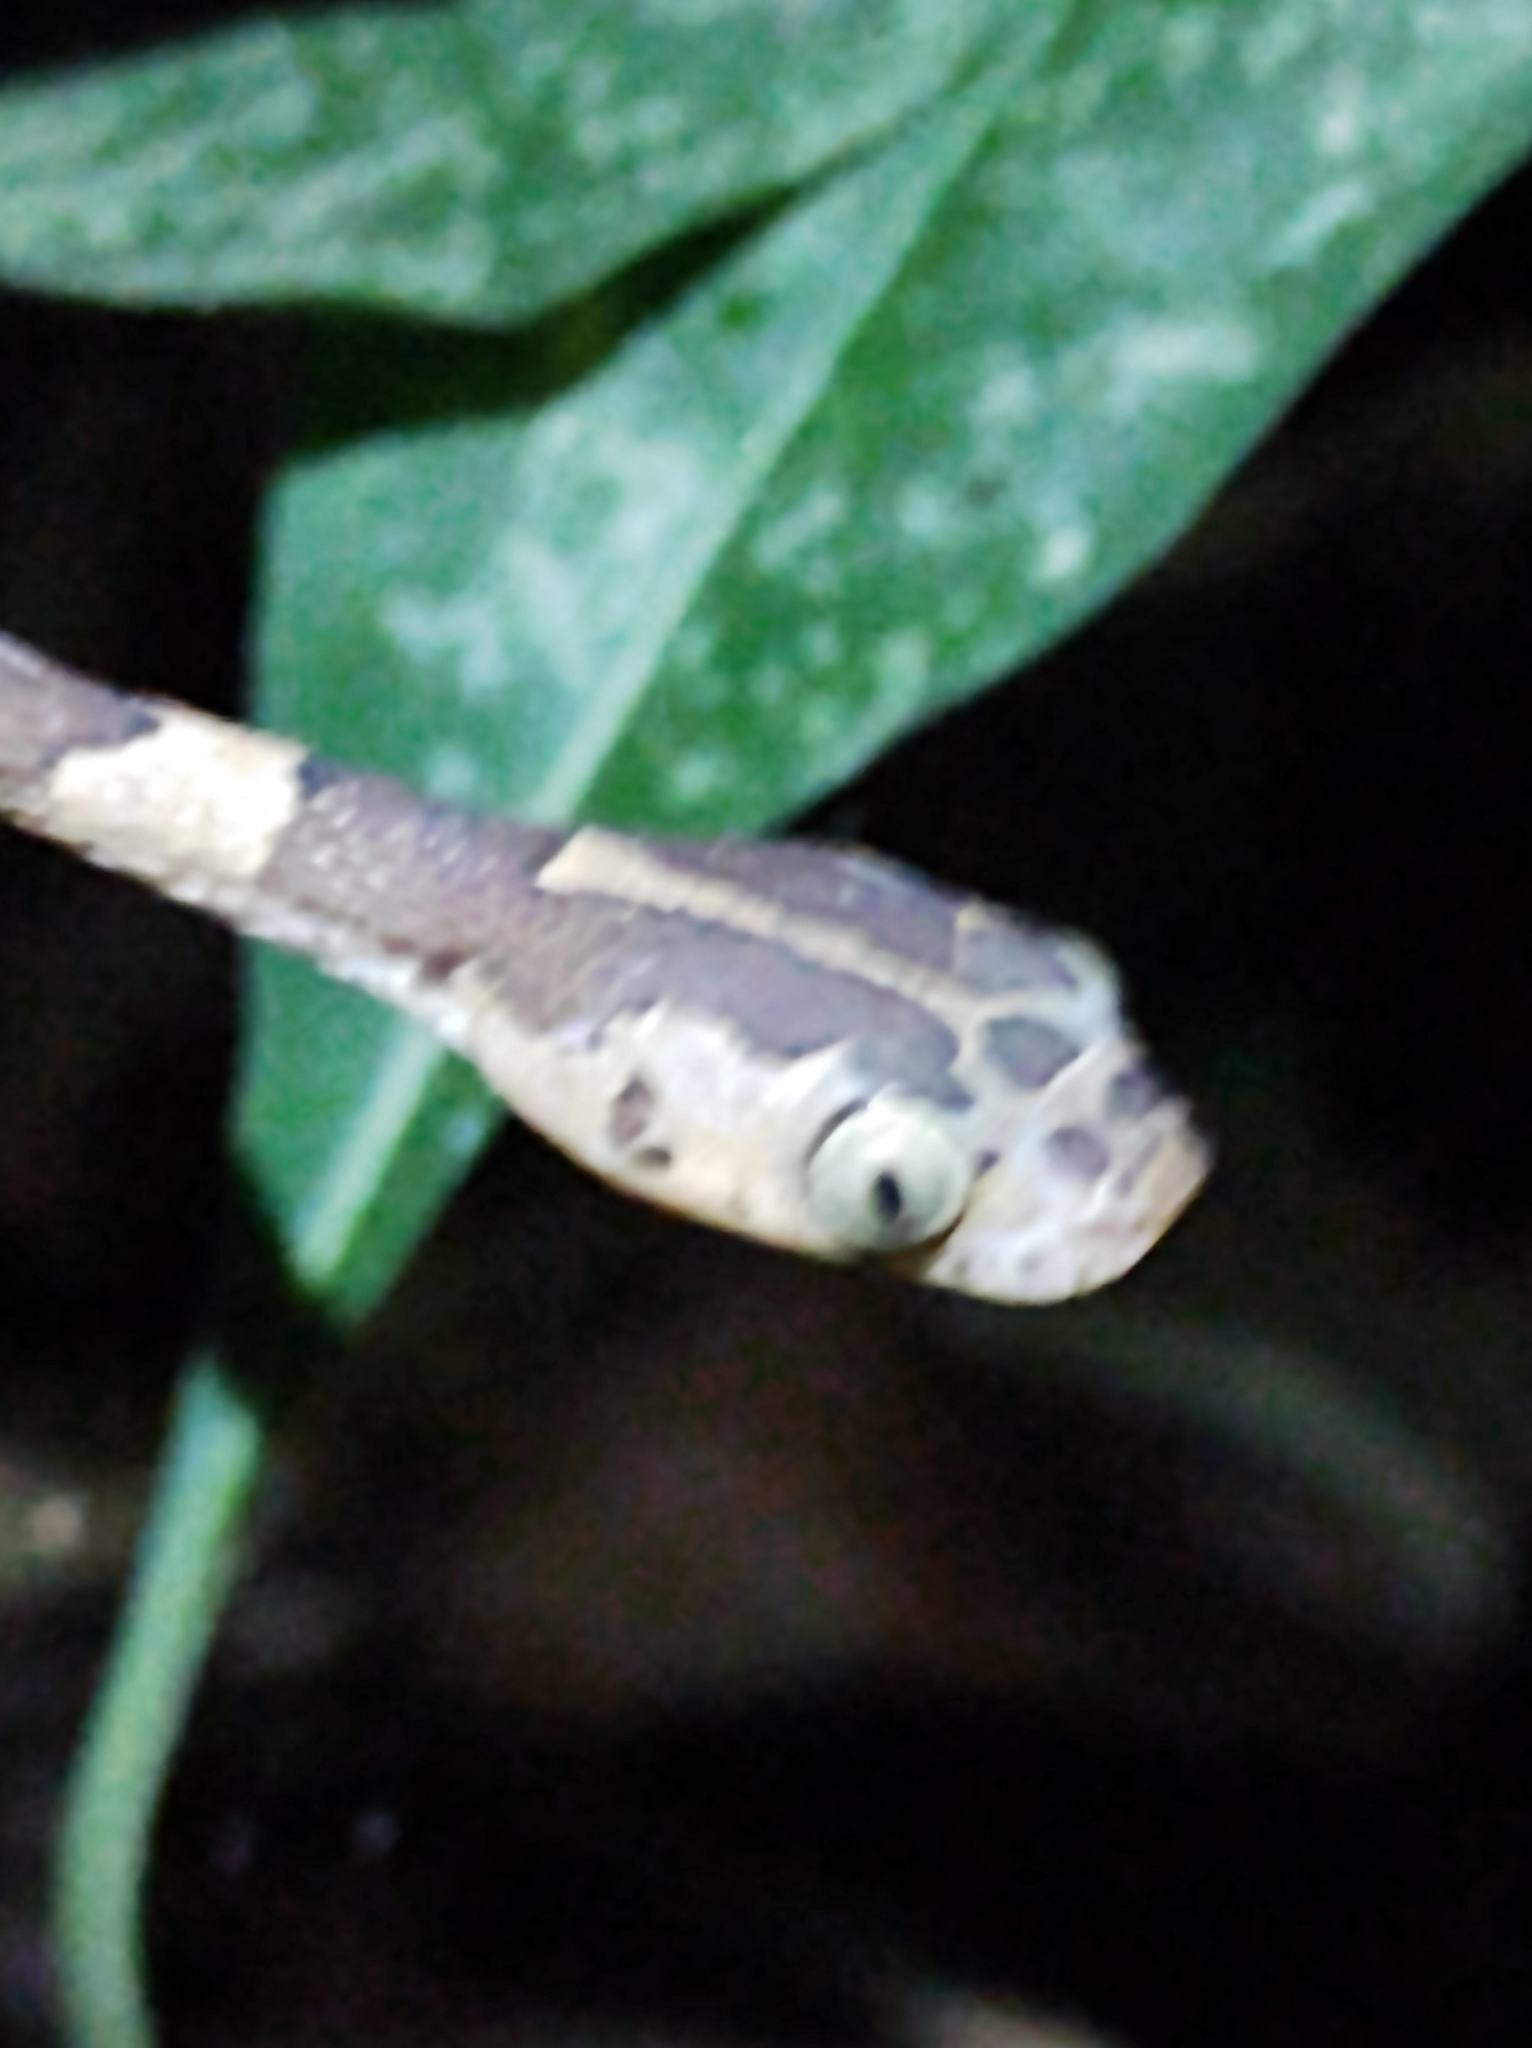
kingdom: Animalia
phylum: Chordata
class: Squamata
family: Colubridae
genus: Imantodes
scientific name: Imantodes cenchoa
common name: Blunthead tree snake
